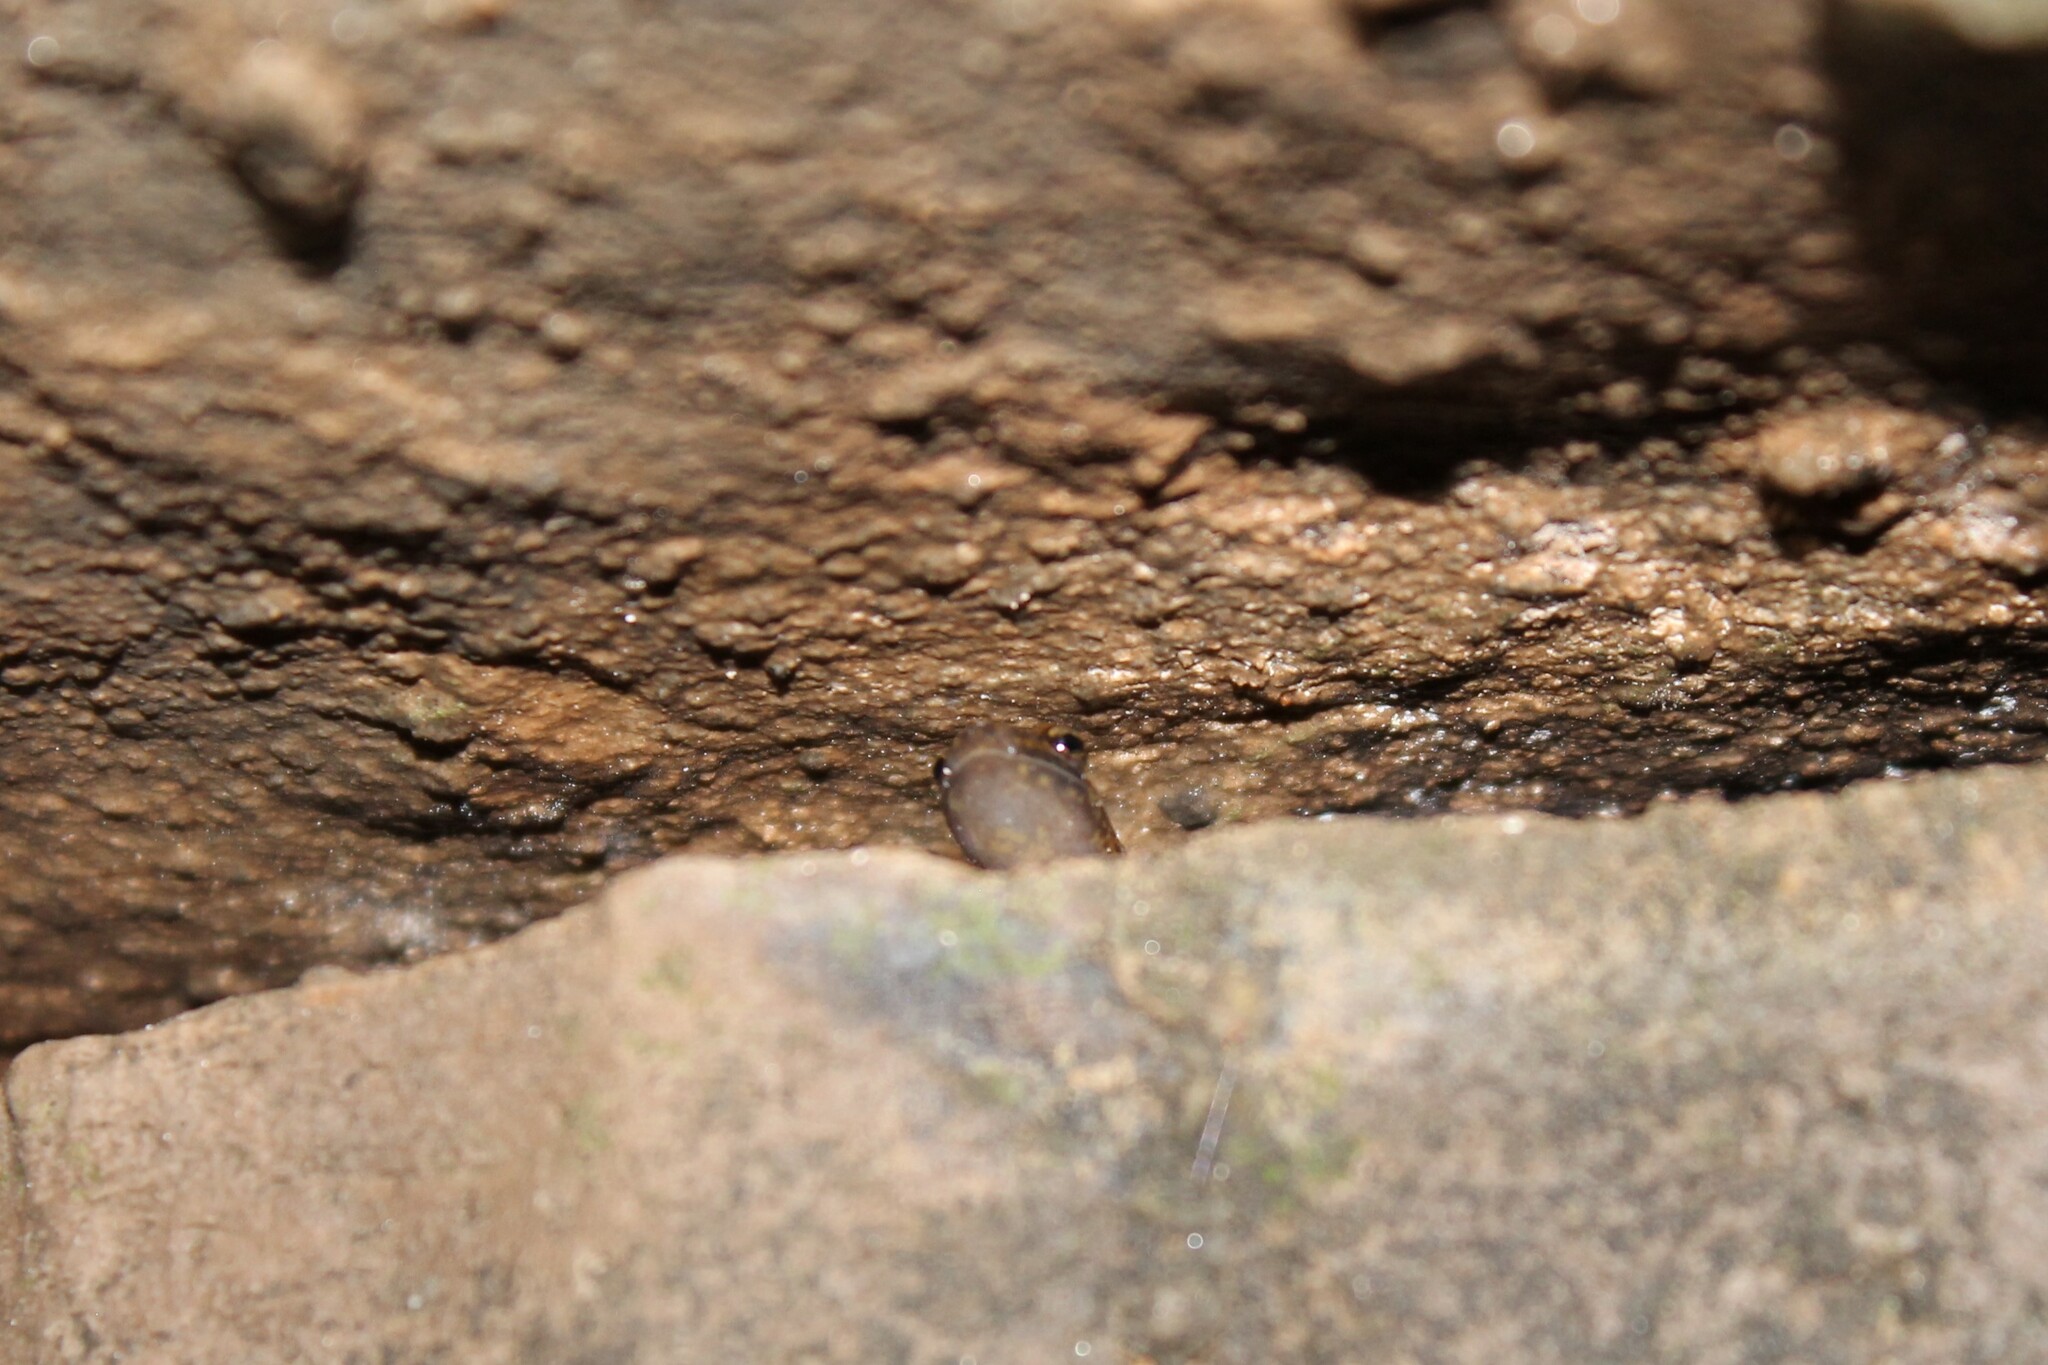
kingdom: Animalia
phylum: Chordata
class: Amphibia
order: Caudata
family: Plethodontidae
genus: Eurycea
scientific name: Eurycea lucifuga
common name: Cave salamander
